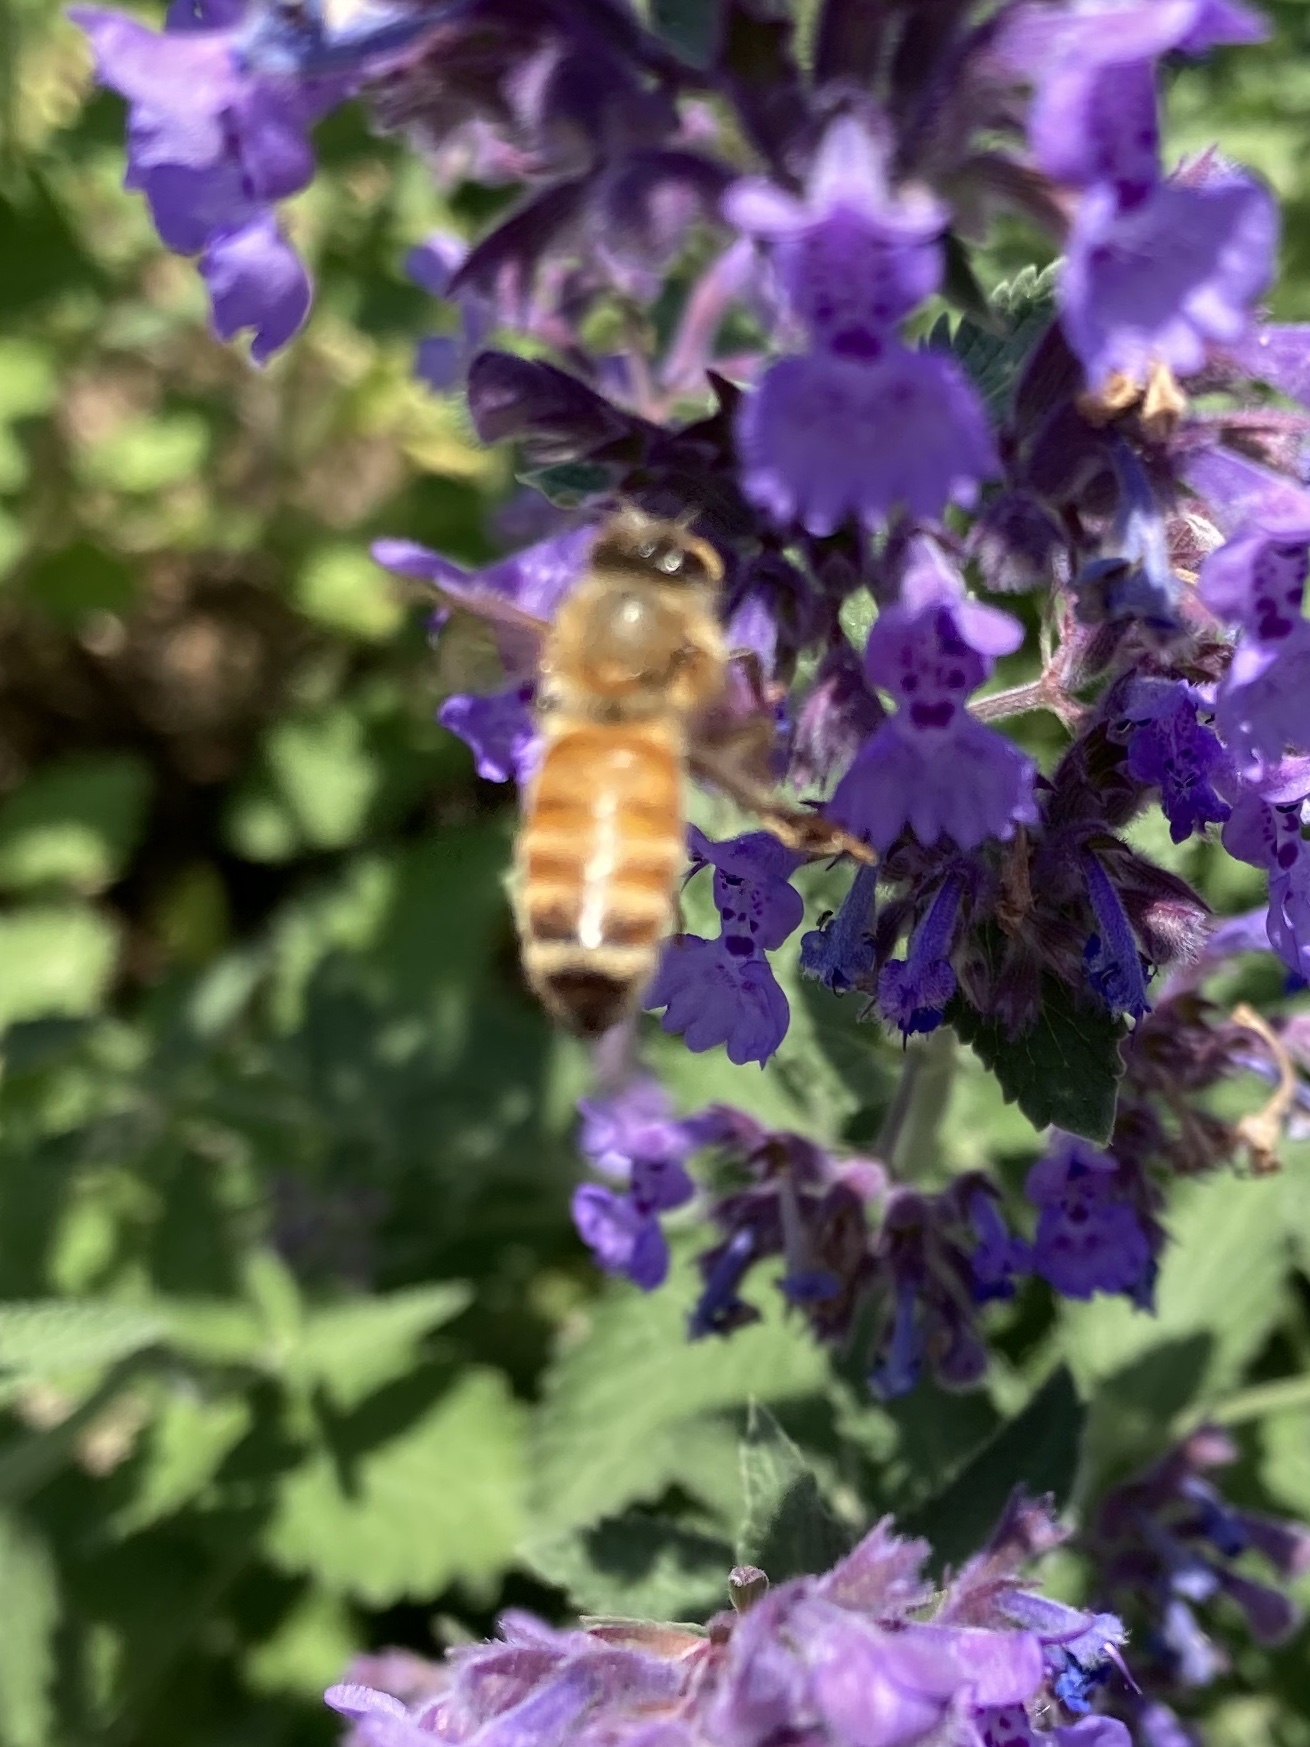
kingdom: Animalia
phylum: Arthropoda
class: Insecta
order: Hymenoptera
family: Apidae
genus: Apis
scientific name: Apis mellifera
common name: Honey bee
